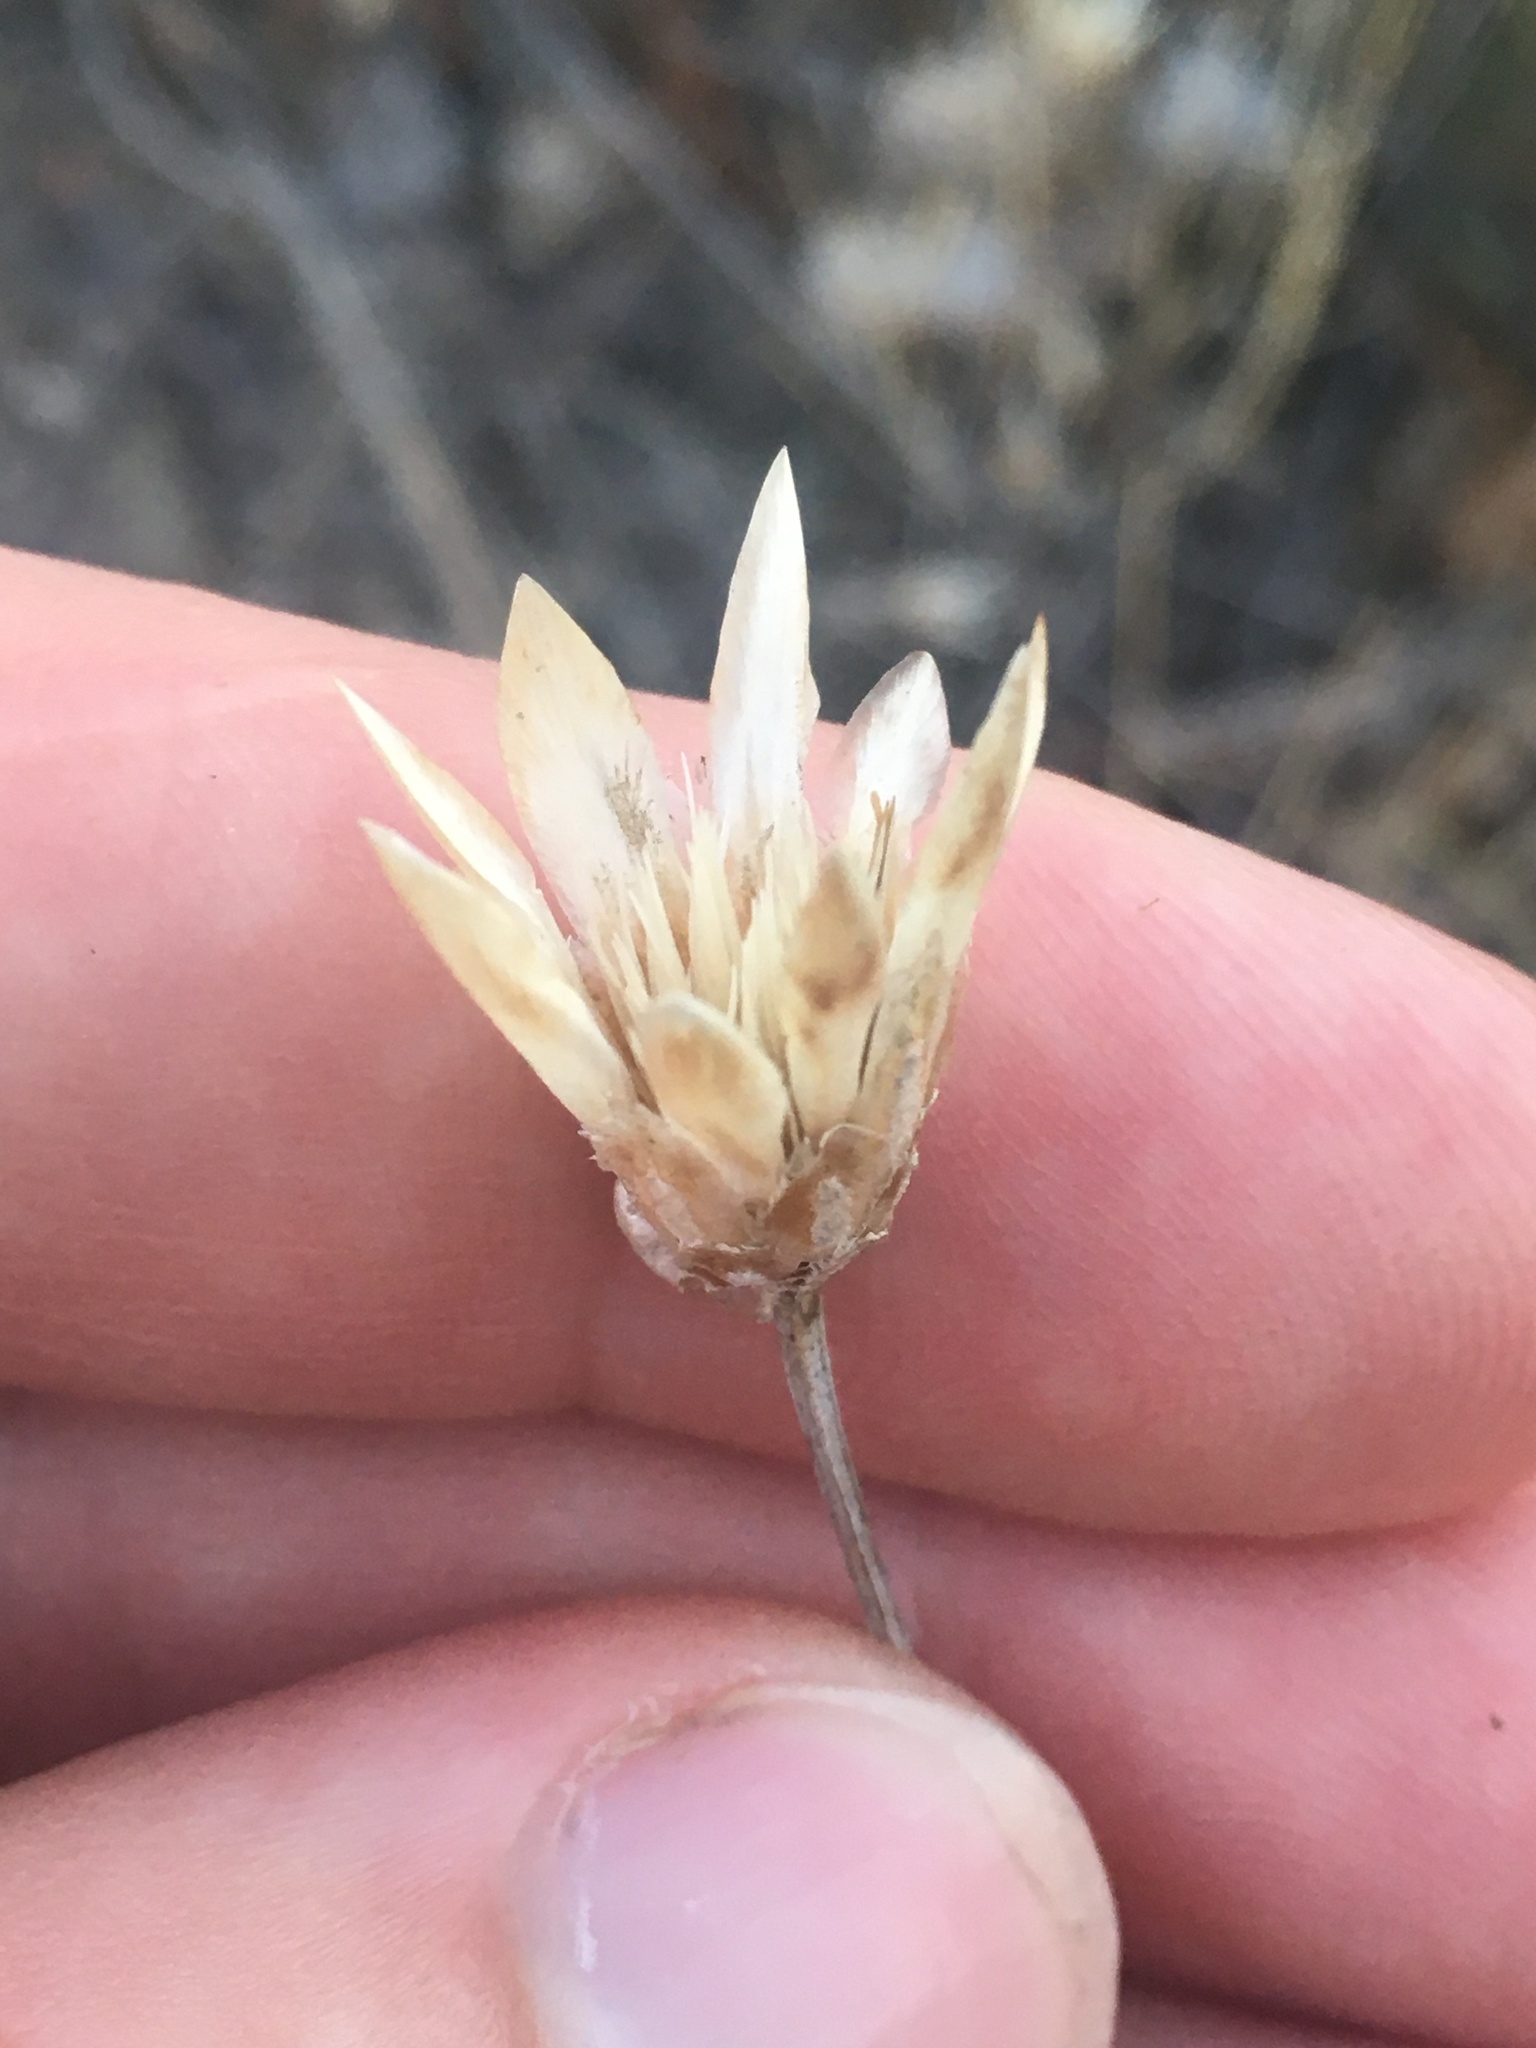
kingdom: Plantae
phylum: Tracheophyta
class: Magnoliopsida
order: Asterales
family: Asteraceae
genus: Xeranthemum
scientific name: Xeranthemum annuum
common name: Immortelle
